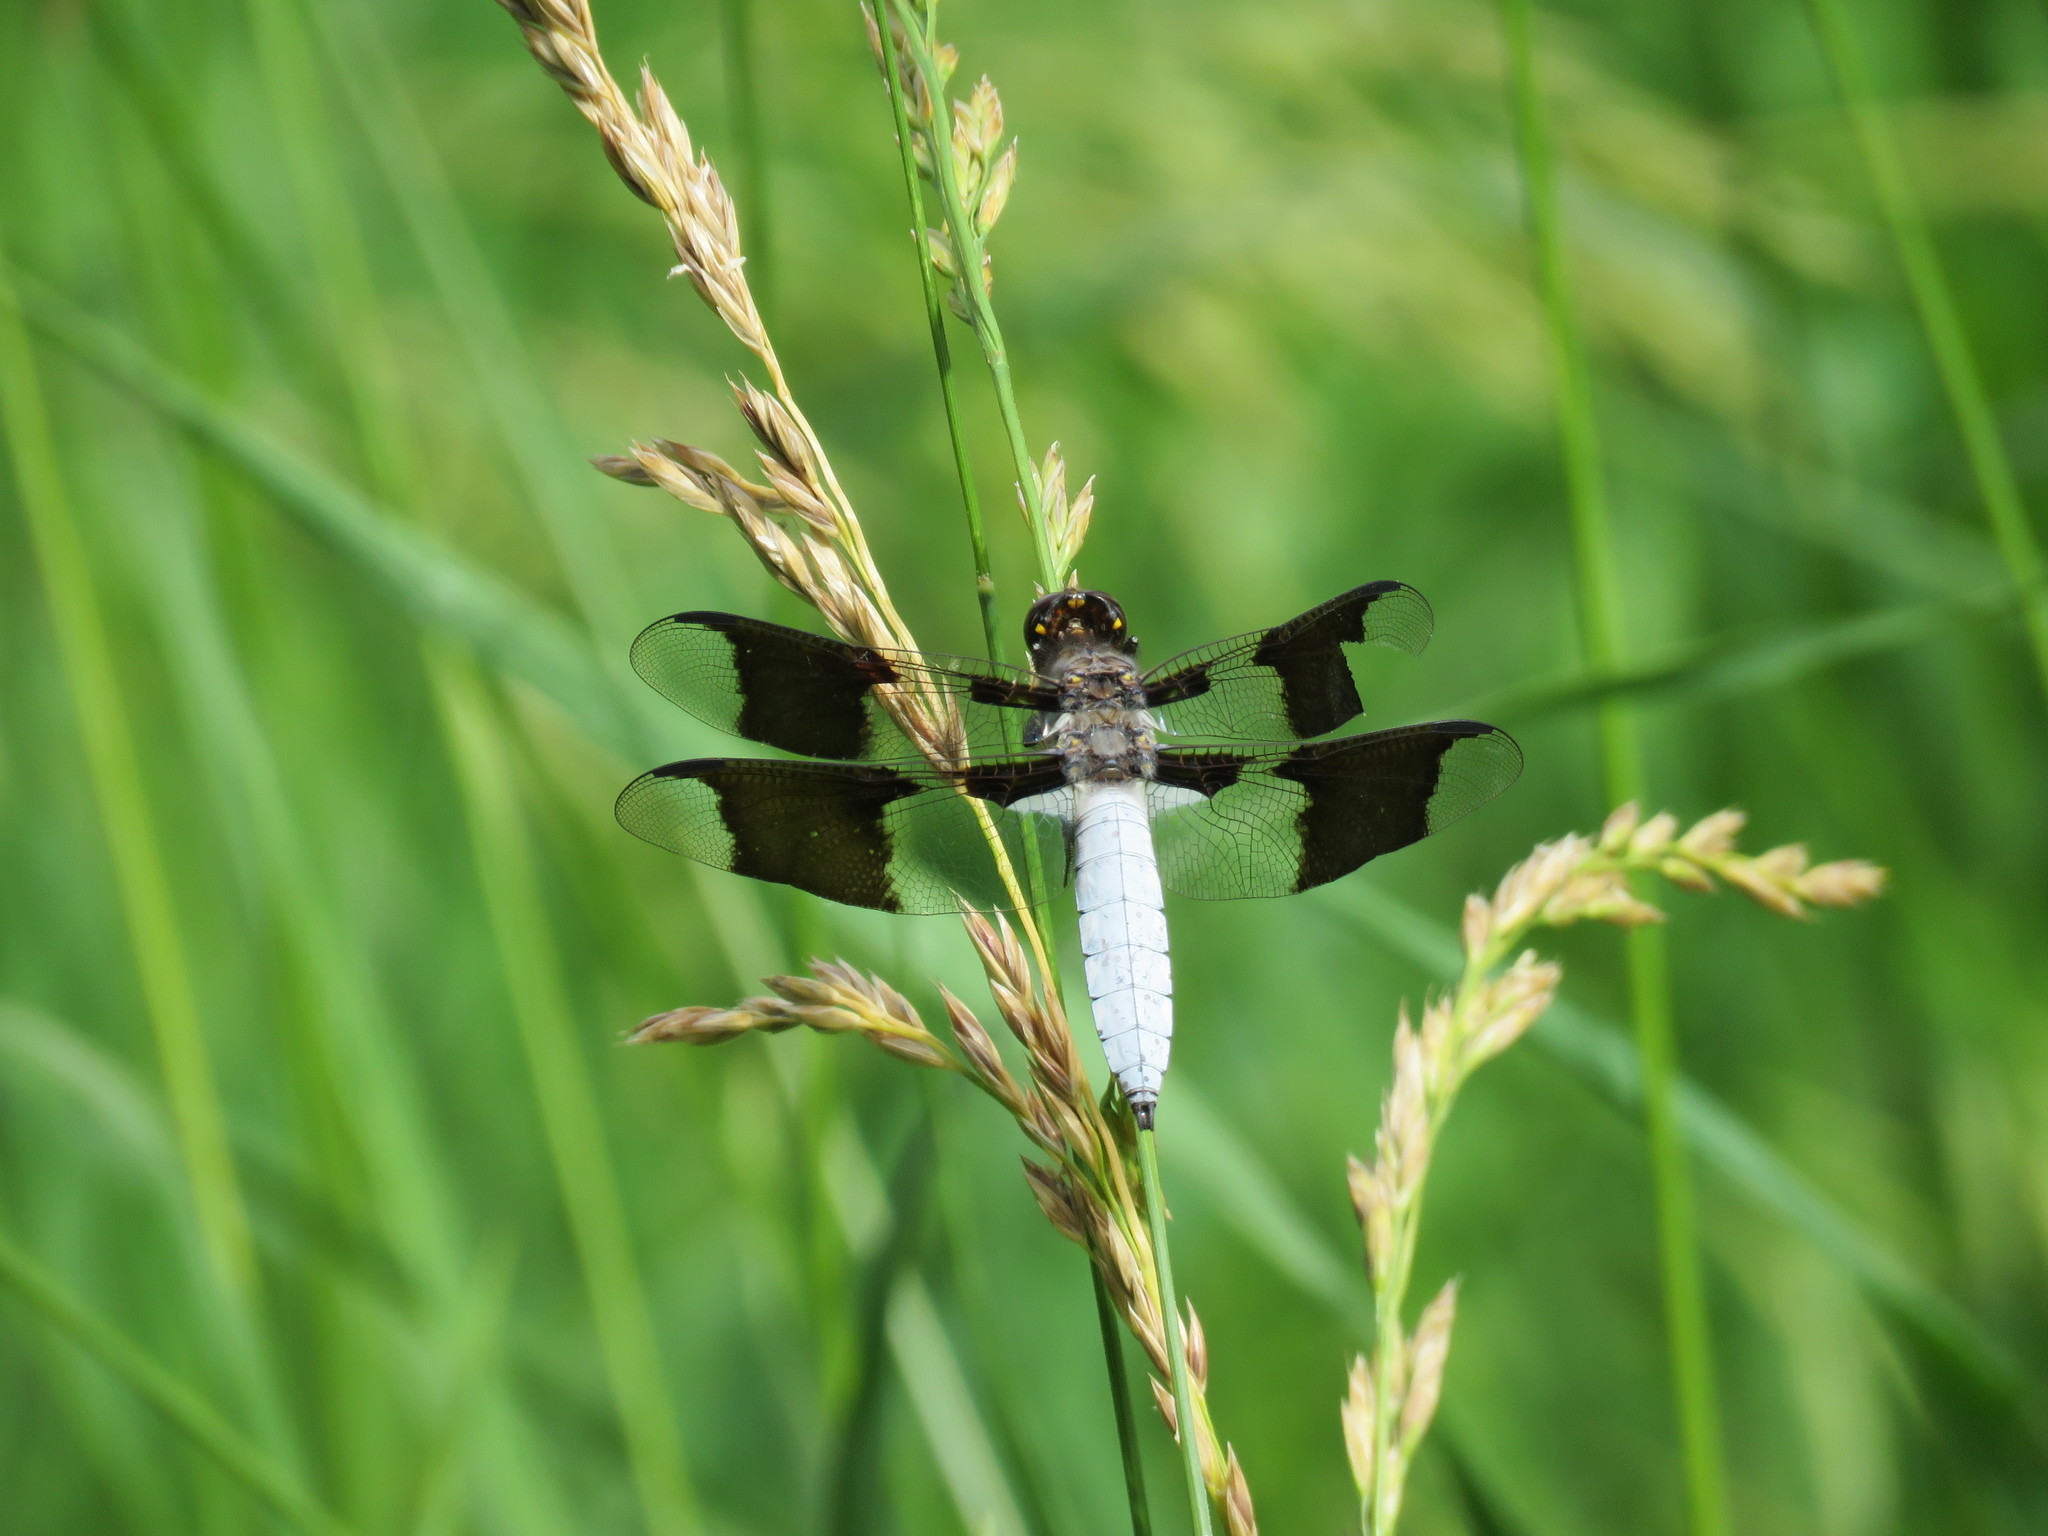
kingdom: Animalia
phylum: Arthropoda
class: Insecta
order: Odonata
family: Libellulidae
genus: Plathemis
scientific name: Plathemis lydia
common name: Common whitetail
